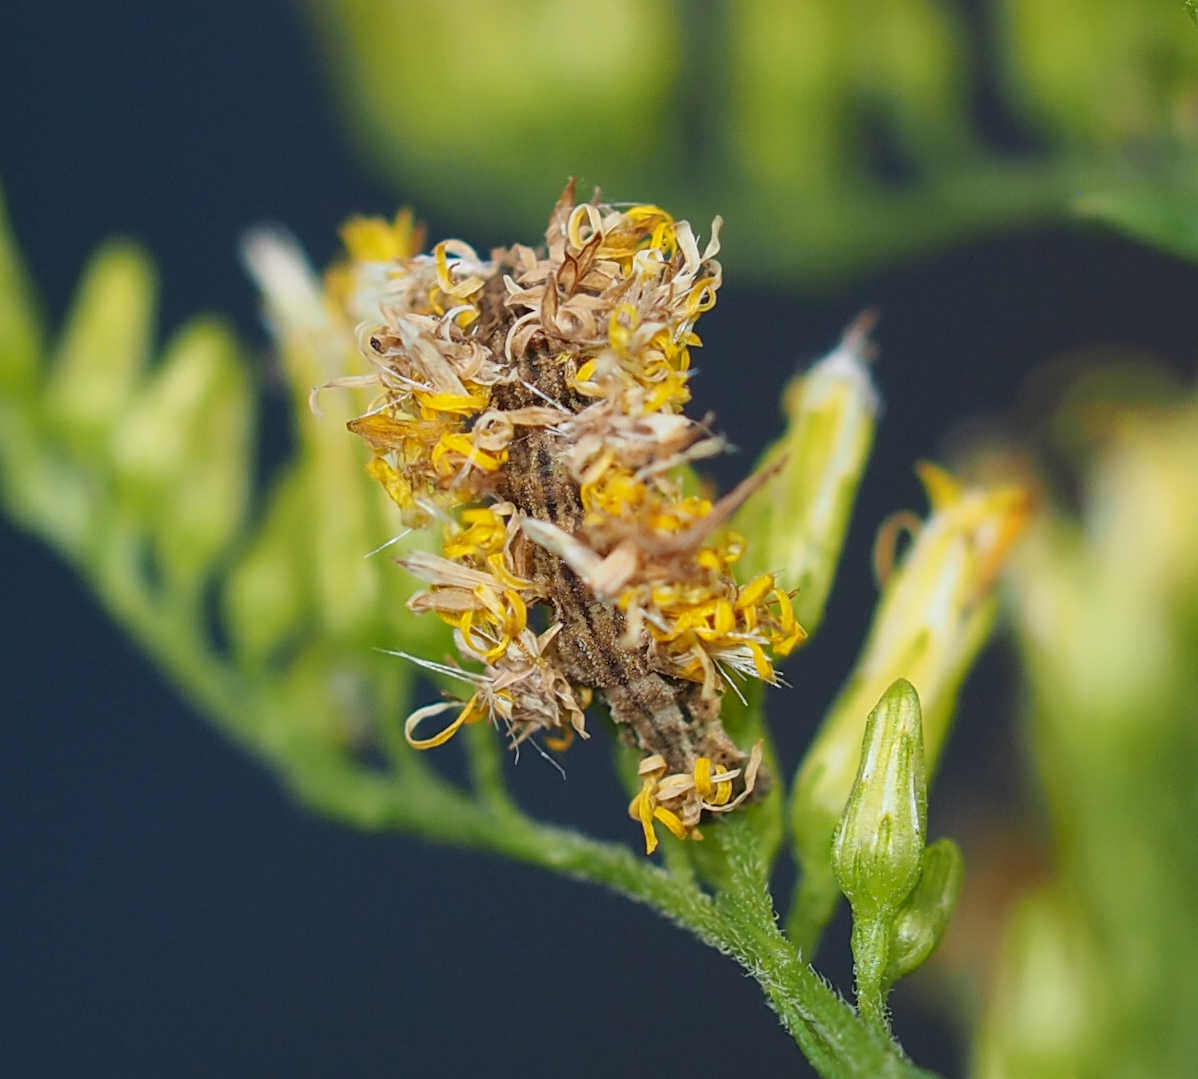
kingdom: Animalia
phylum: Arthropoda
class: Insecta
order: Lepidoptera
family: Geometridae
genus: Synchlora
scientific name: Synchlora aerata
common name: Wavy-lined emerald
